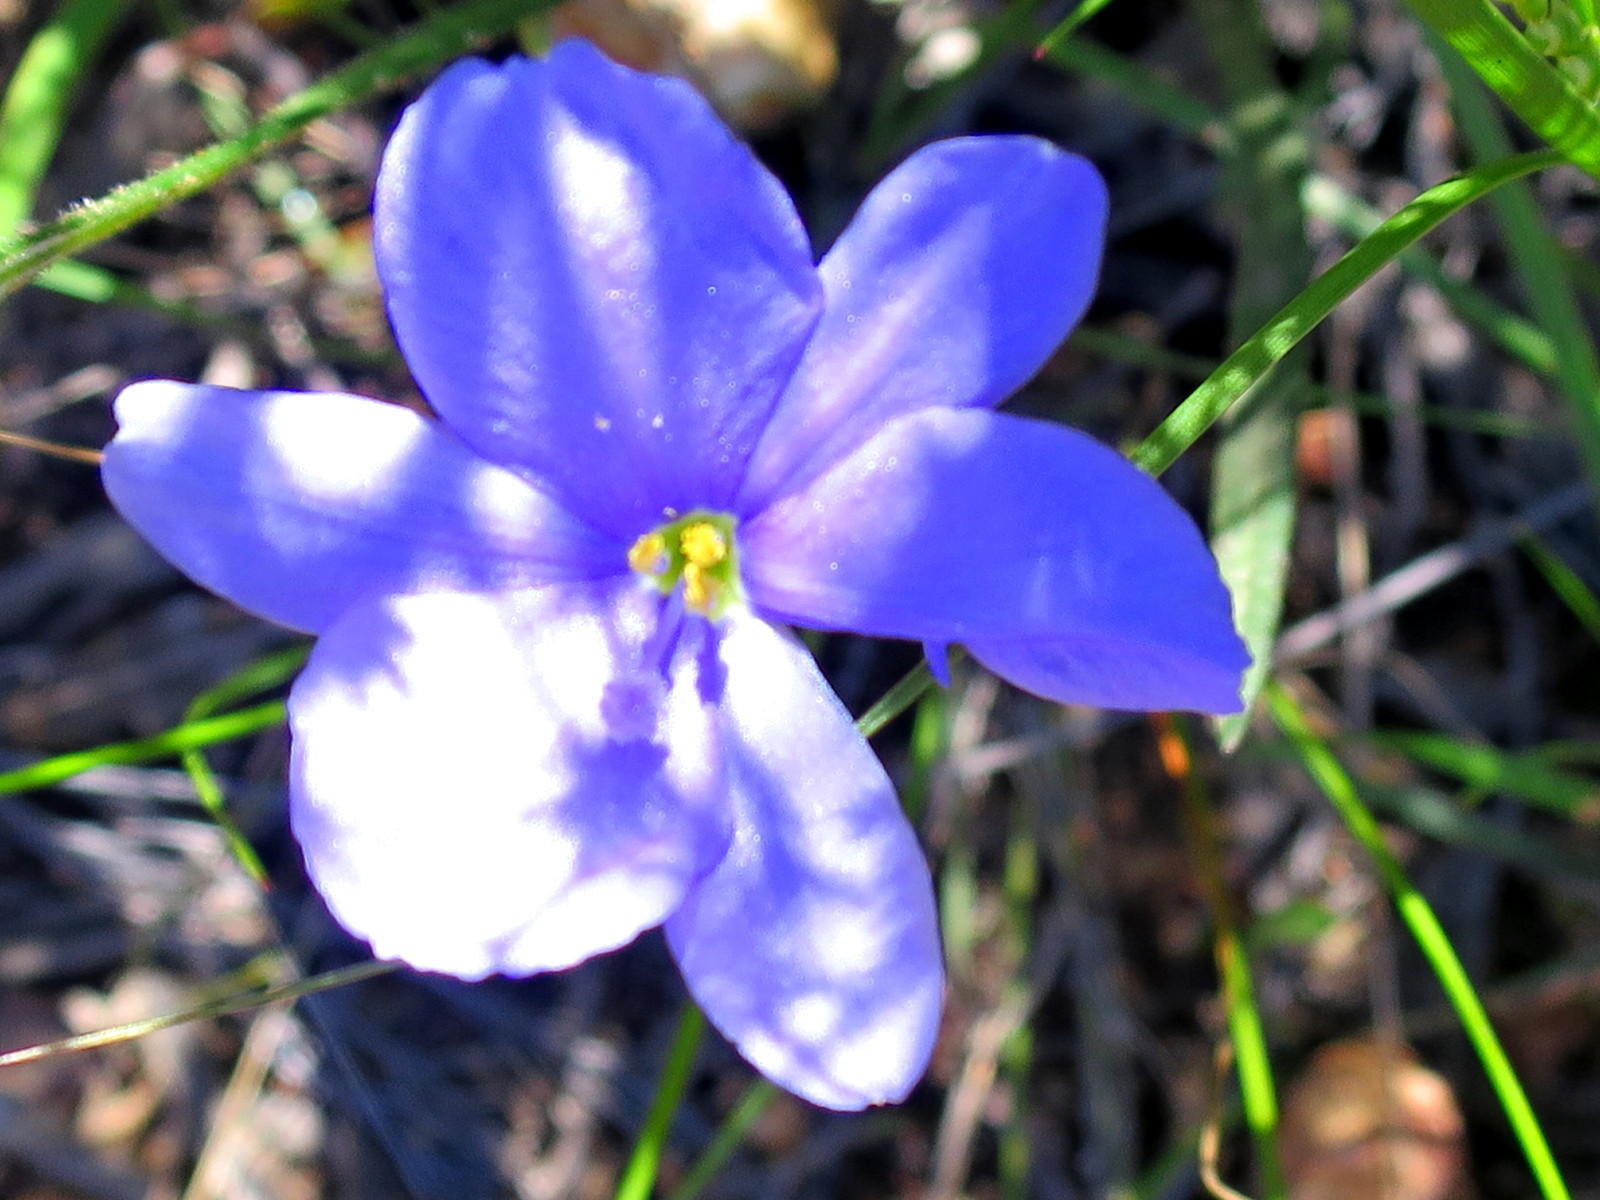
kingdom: Plantae
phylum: Tracheophyta
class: Liliopsida
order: Asparagales
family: Iridaceae
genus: Aristea
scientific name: Aristea nana
